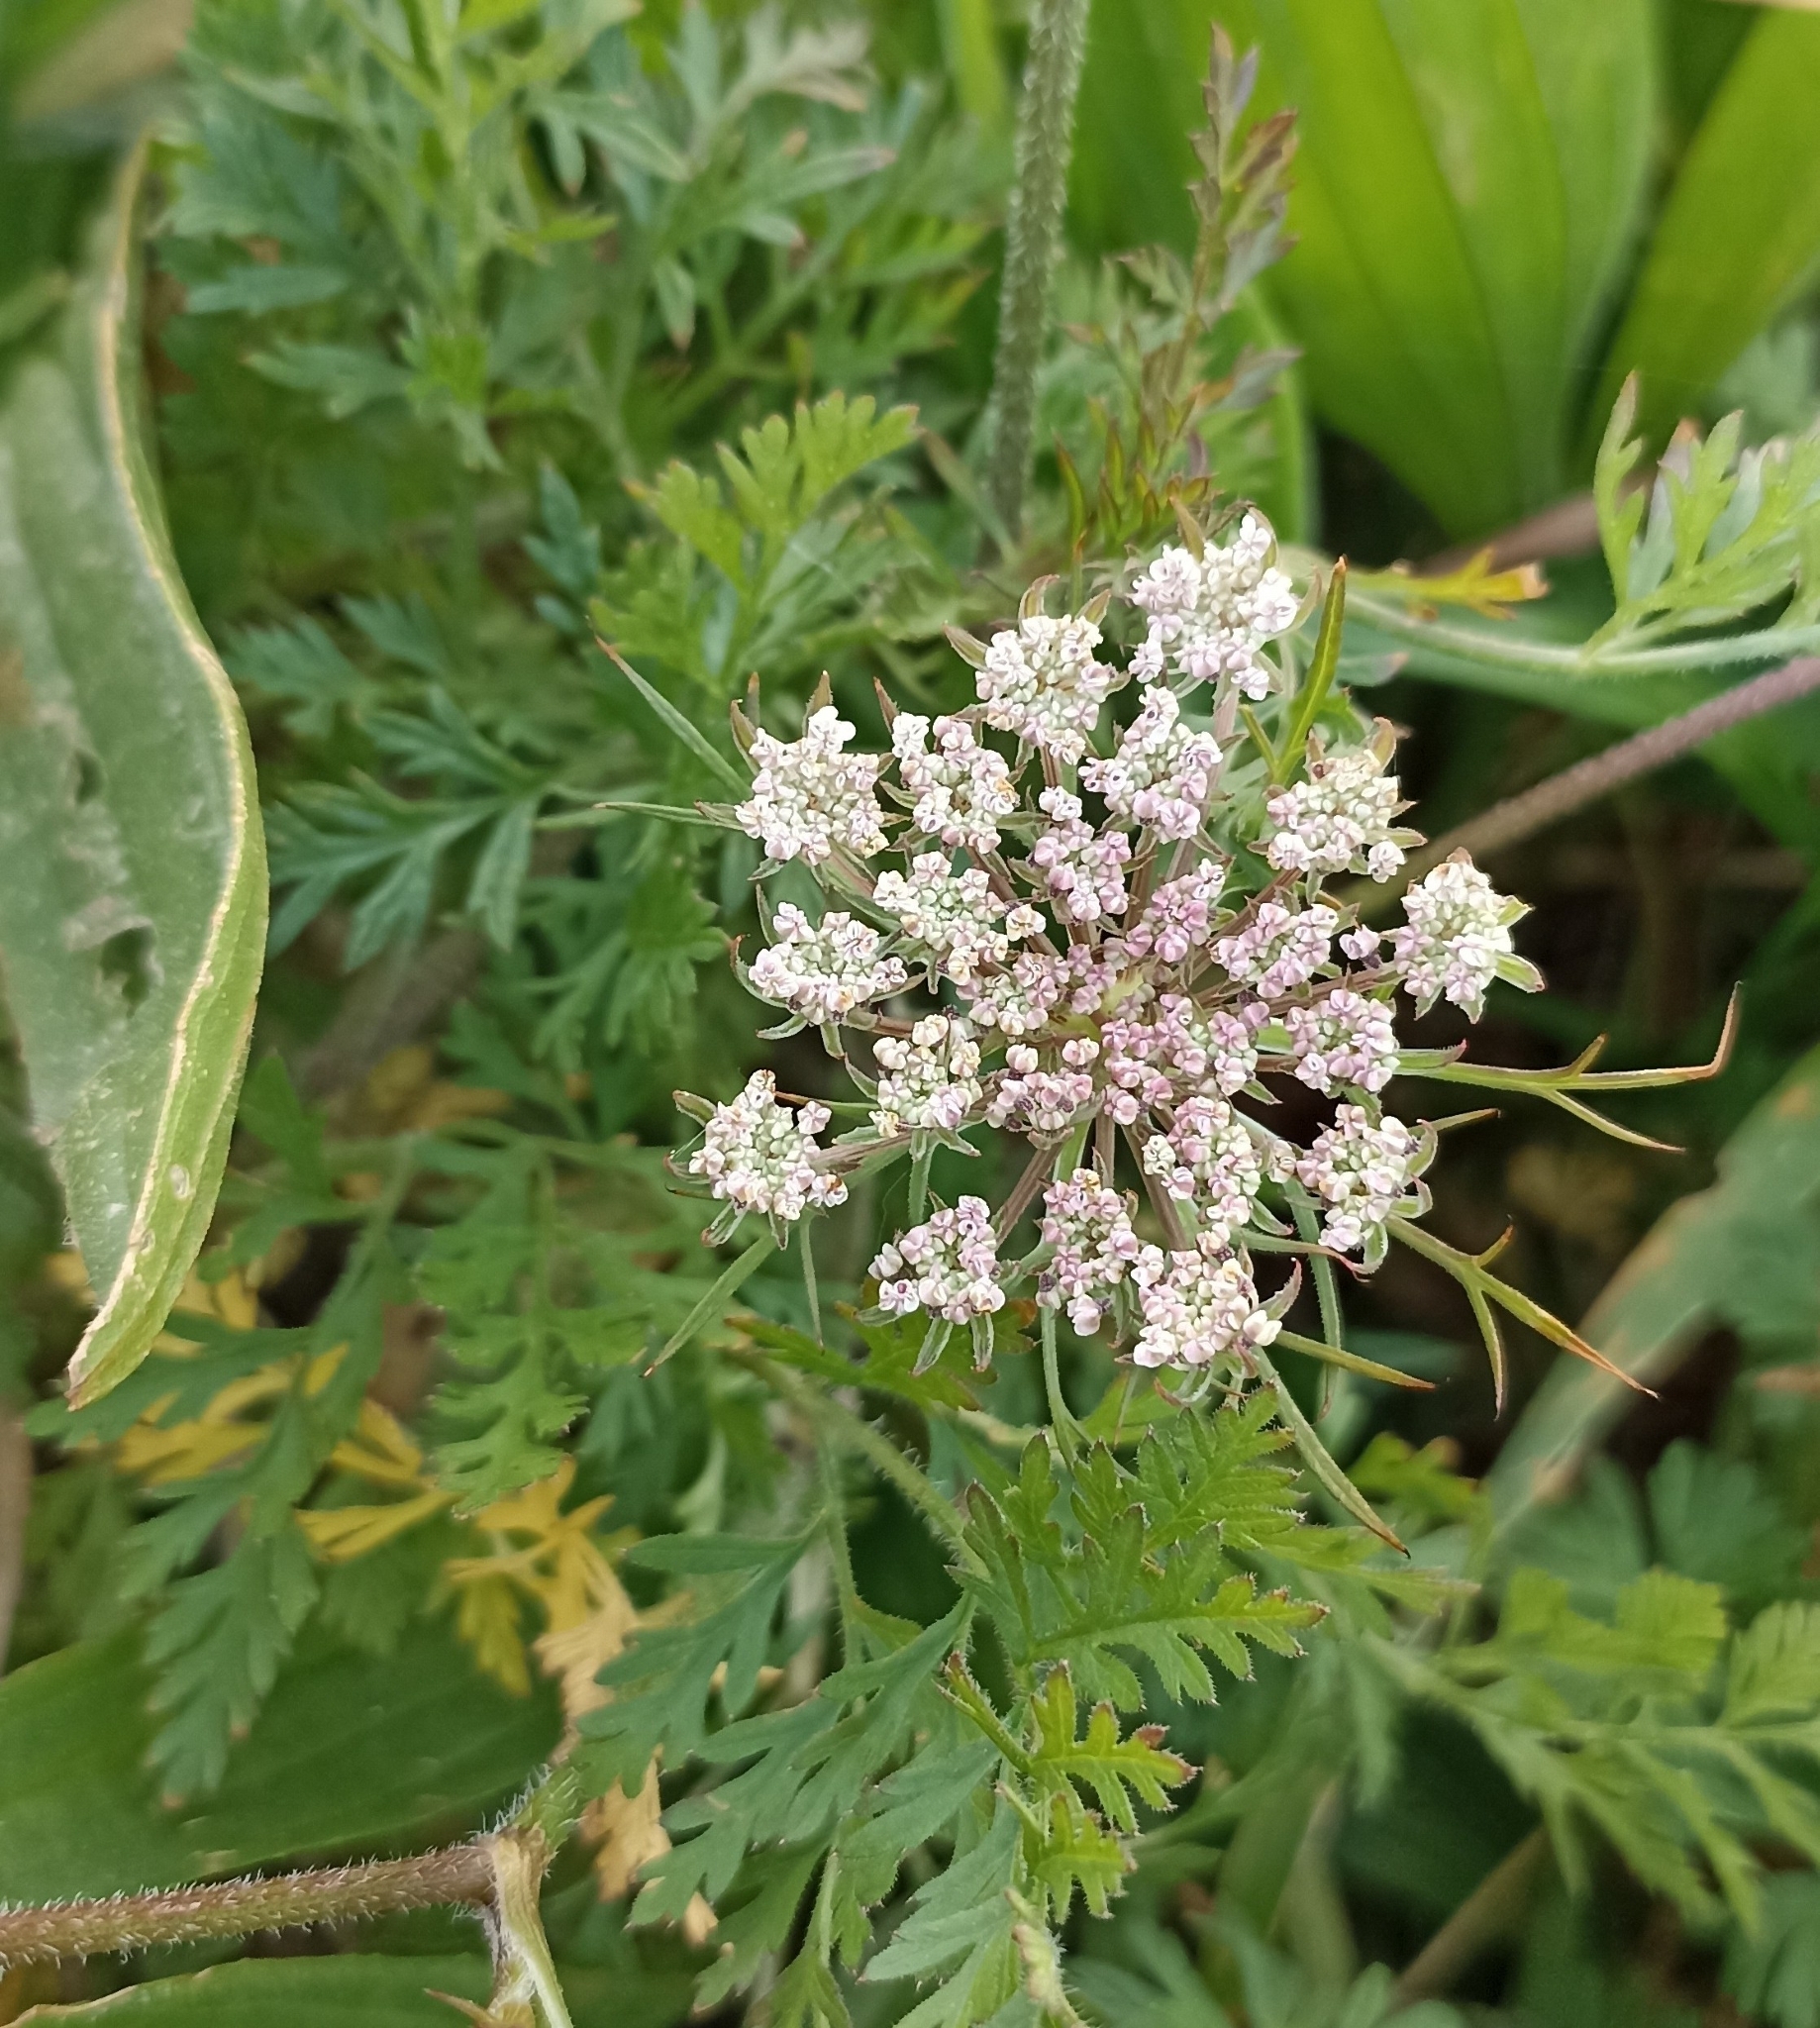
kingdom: Plantae
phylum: Tracheophyta
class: Magnoliopsida
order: Apiales
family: Apiaceae
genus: Daucus
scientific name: Daucus carota
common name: Wild carrot
